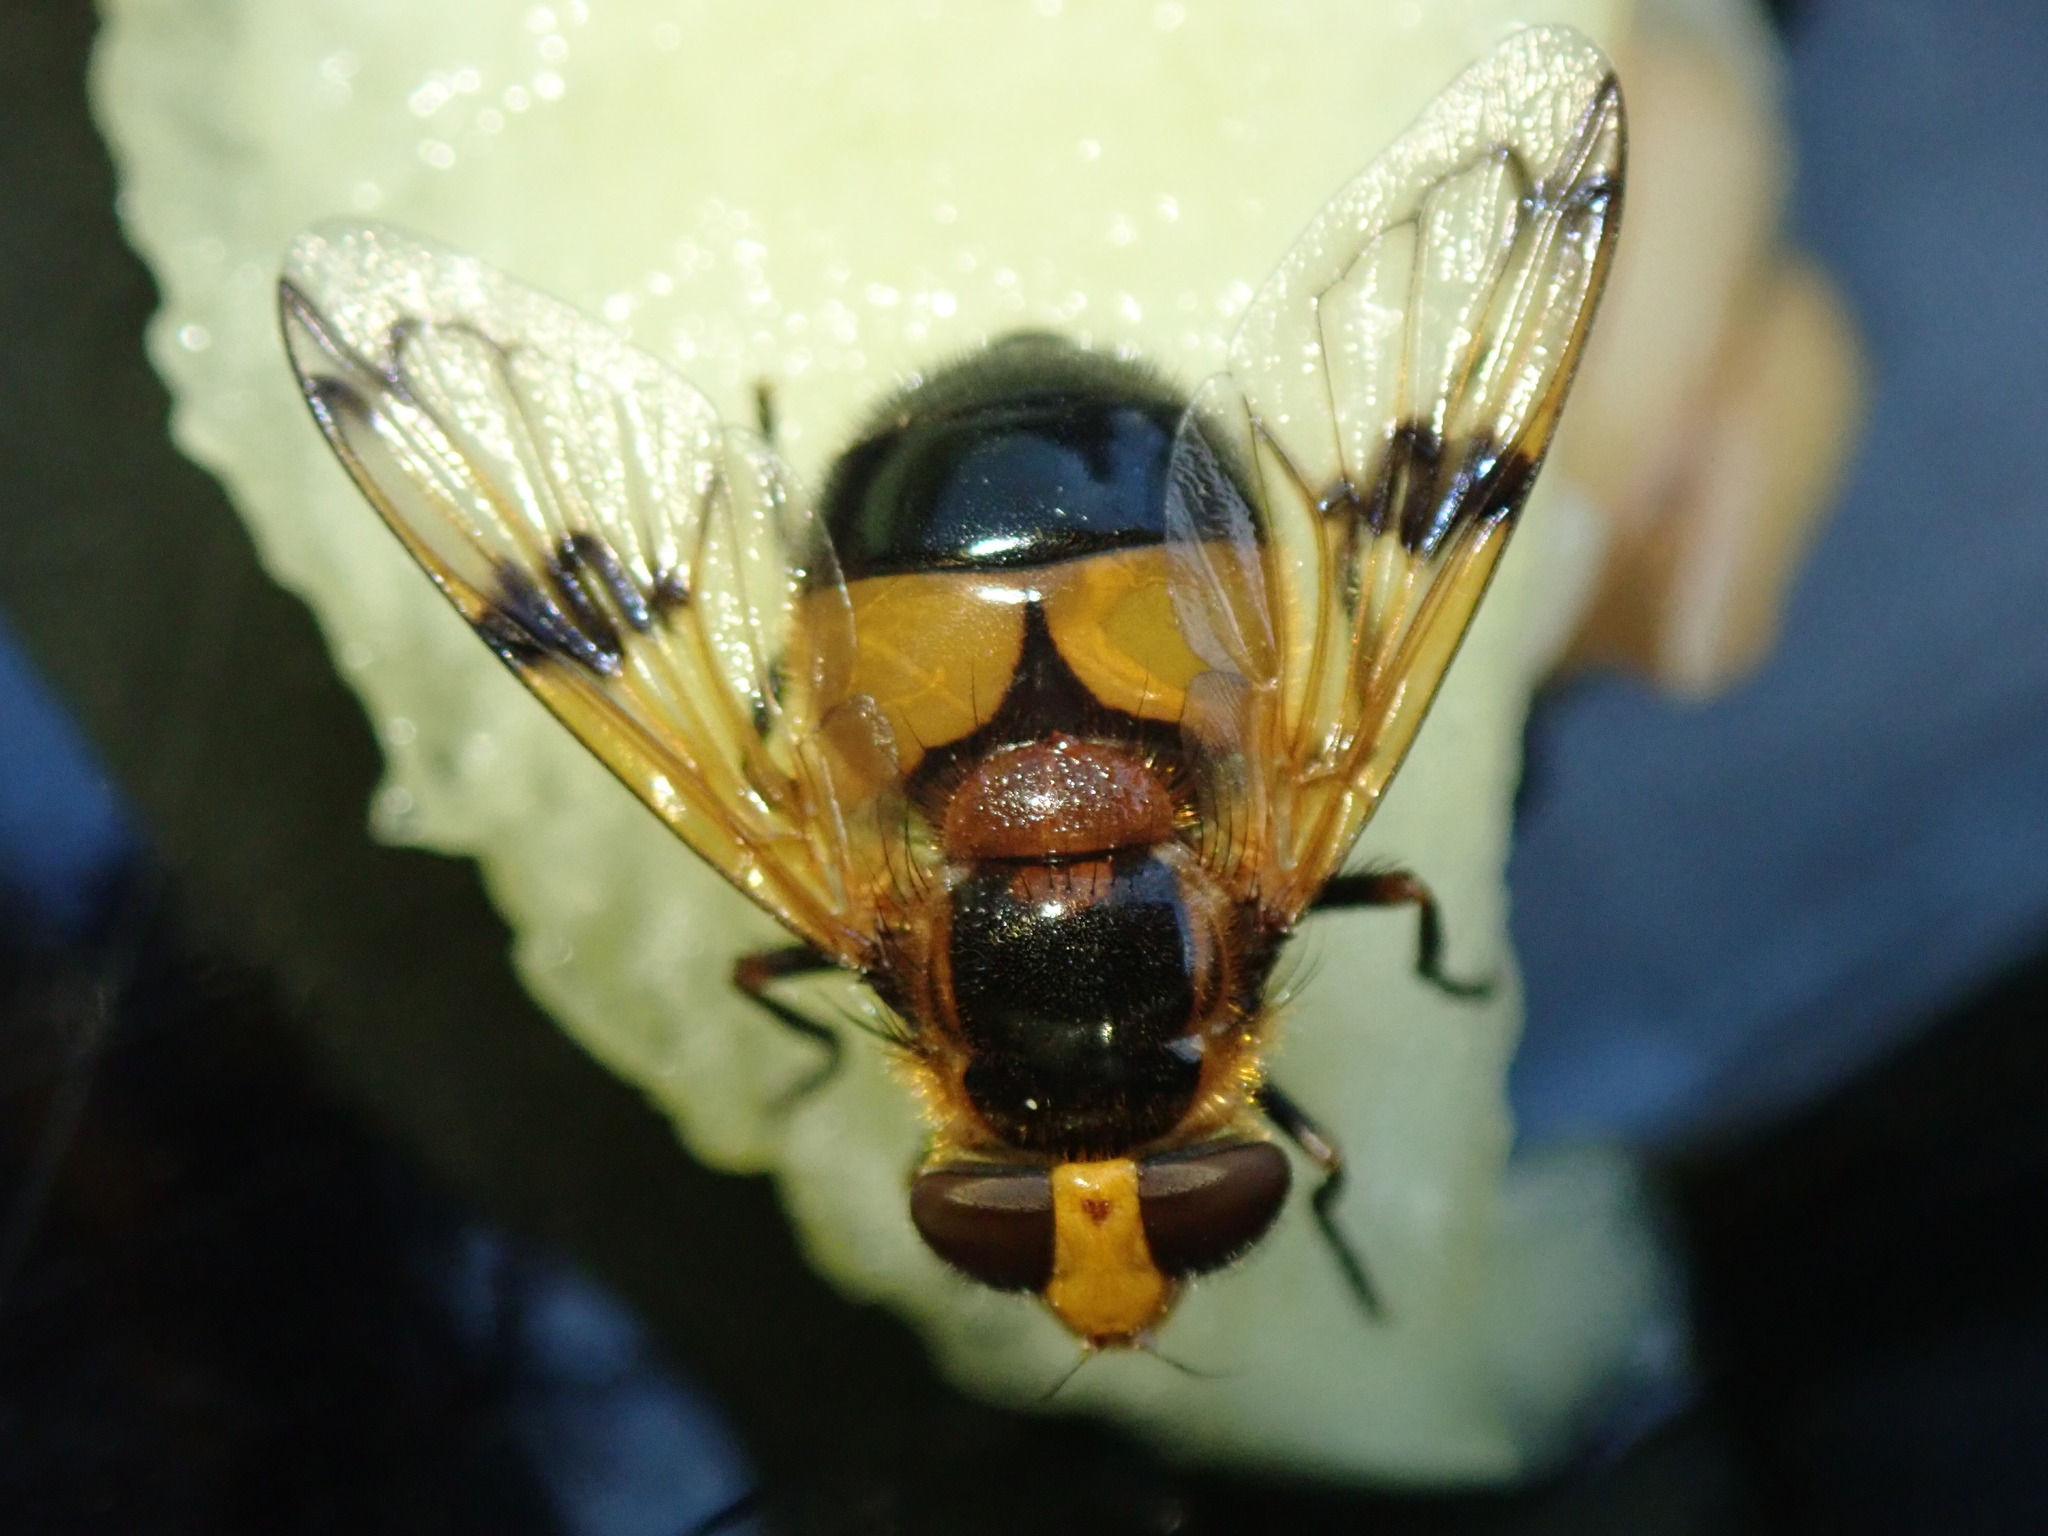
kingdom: Animalia
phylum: Arthropoda
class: Insecta
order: Diptera
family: Syrphidae
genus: Volucella
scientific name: Volucella inflata
